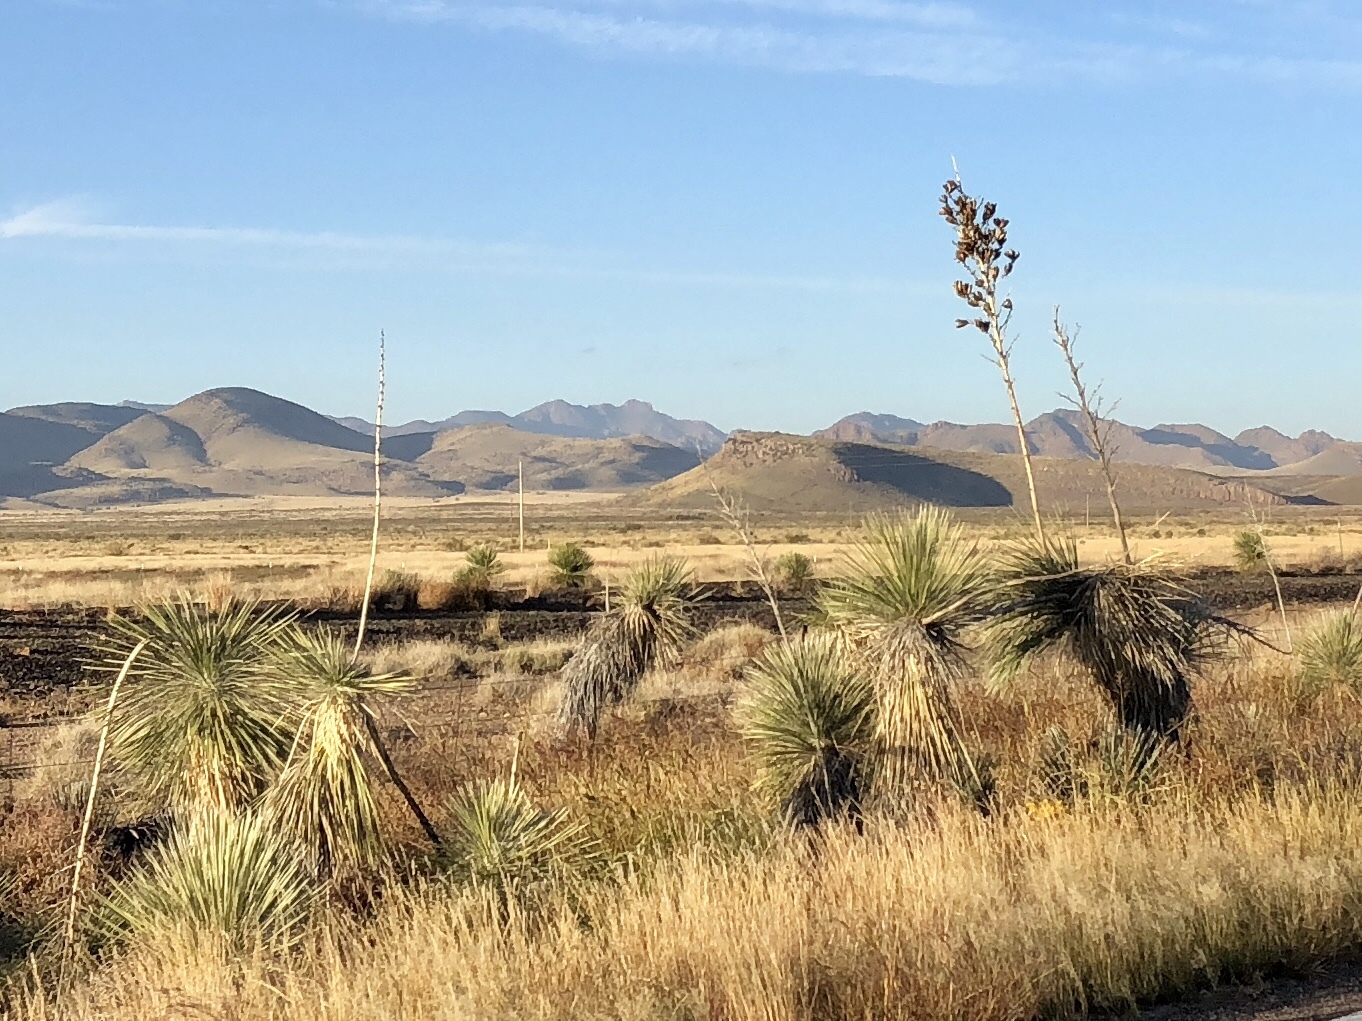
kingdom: Plantae
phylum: Tracheophyta
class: Liliopsida
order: Asparagales
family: Asparagaceae
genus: Yucca
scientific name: Yucca elata
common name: Palmella
